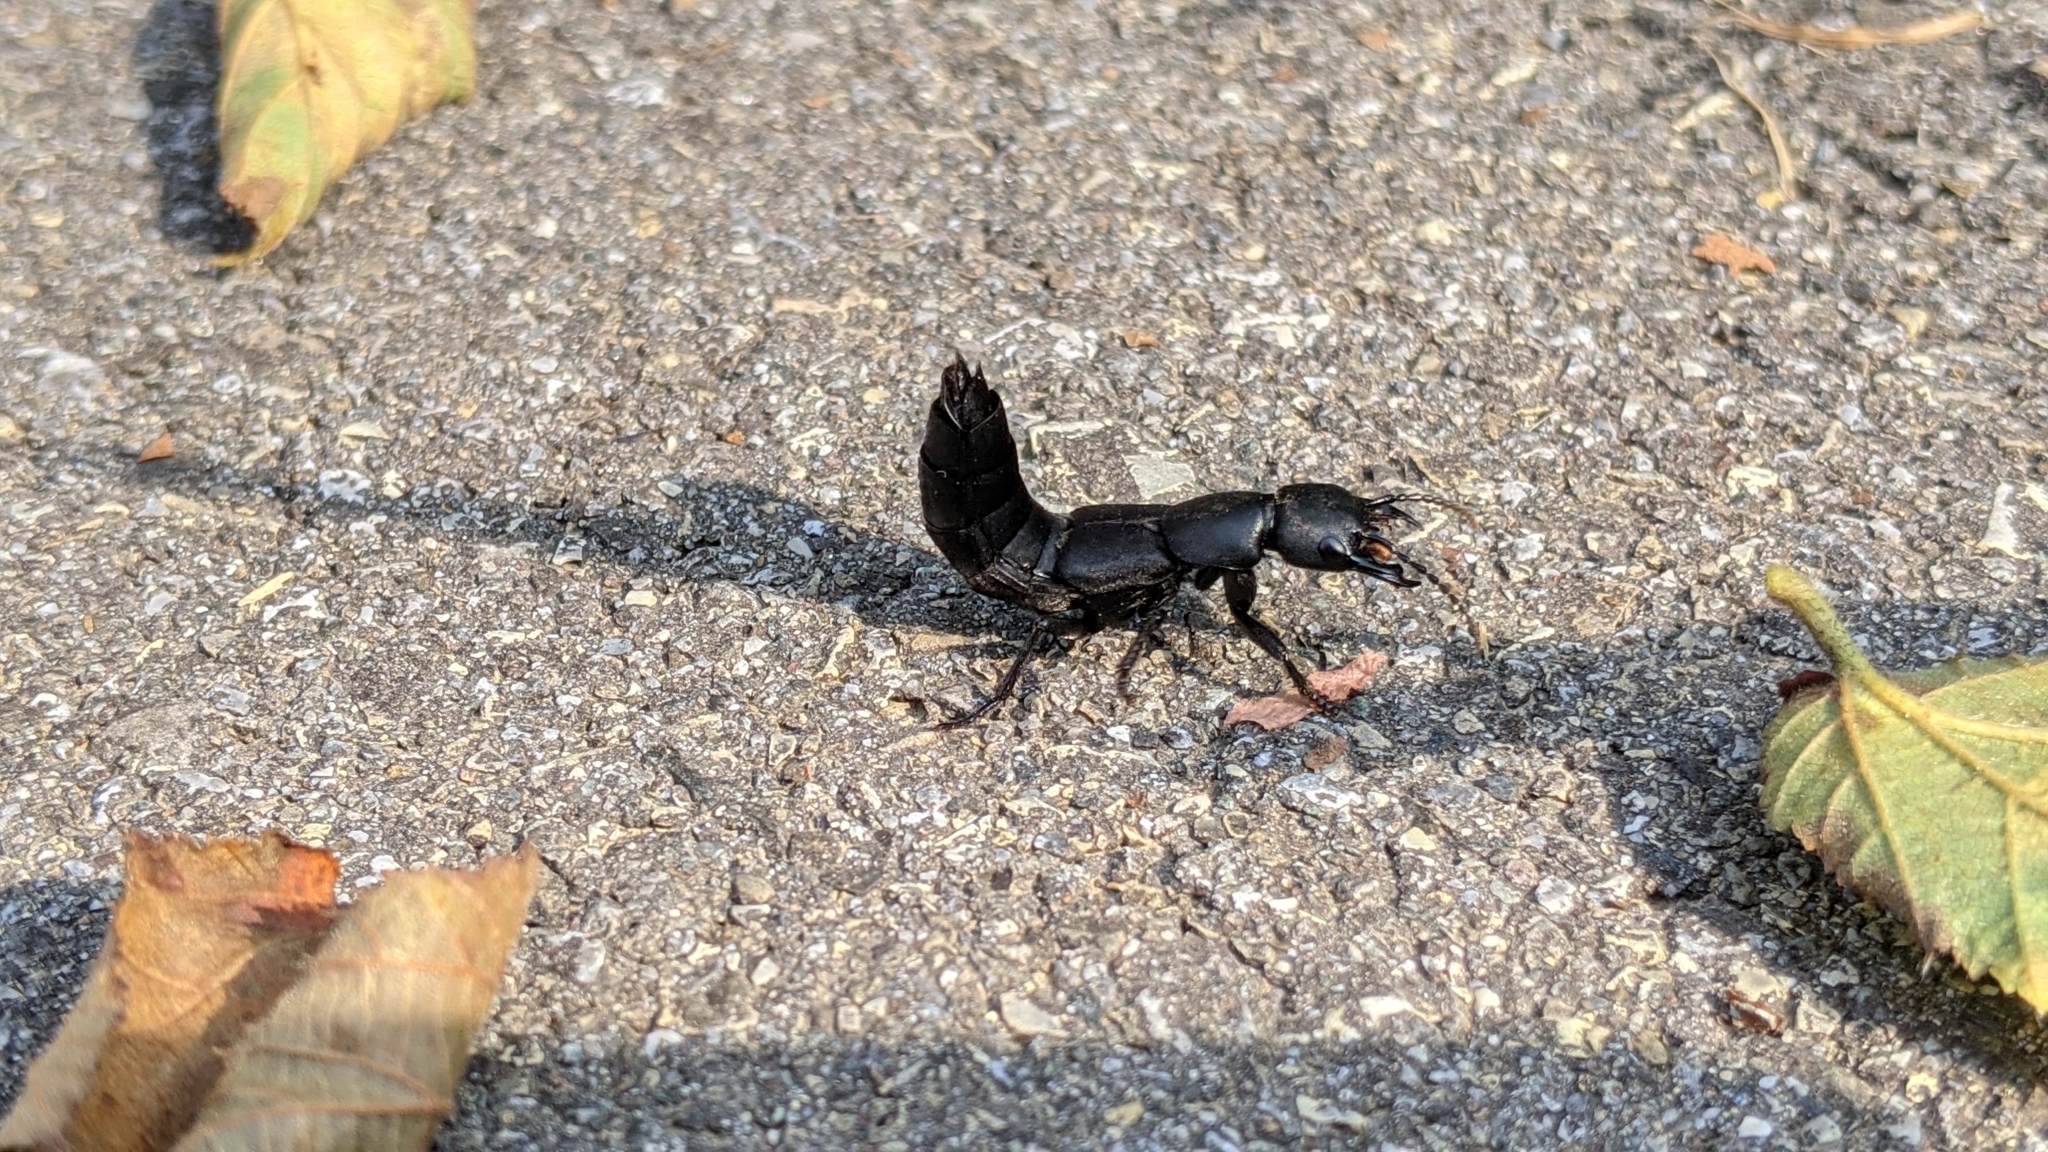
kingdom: Animalia
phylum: Arthropoda
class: Insecta
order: Coleoptera
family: Staphylinidae
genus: Ocypus
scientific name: Ocypus olens
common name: Devil's coach-horse
